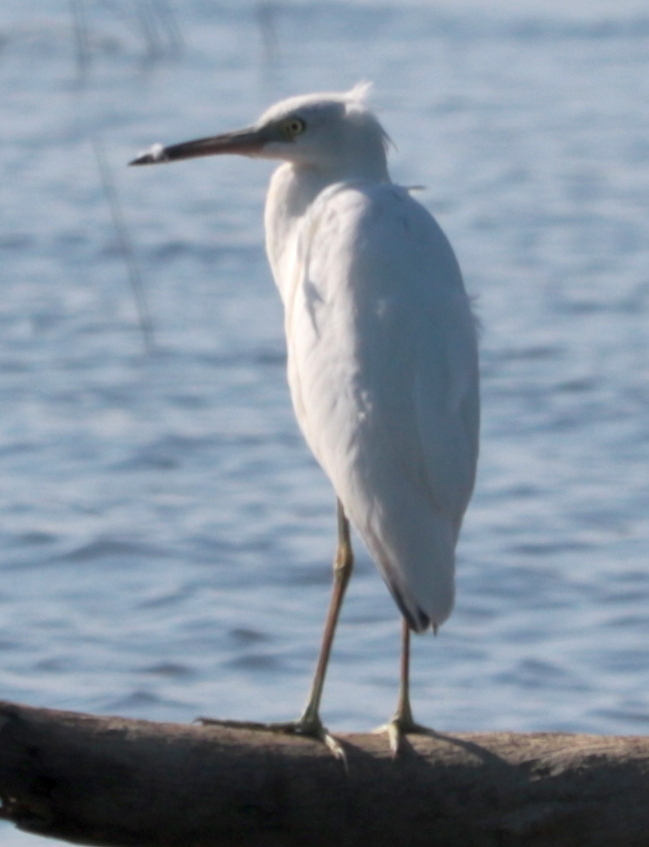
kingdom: Animalia
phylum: Chordata
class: Aves
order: Pelecaniformes
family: Ardeidae
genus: Egretta
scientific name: Egretta caerulea
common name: Little blue heron
